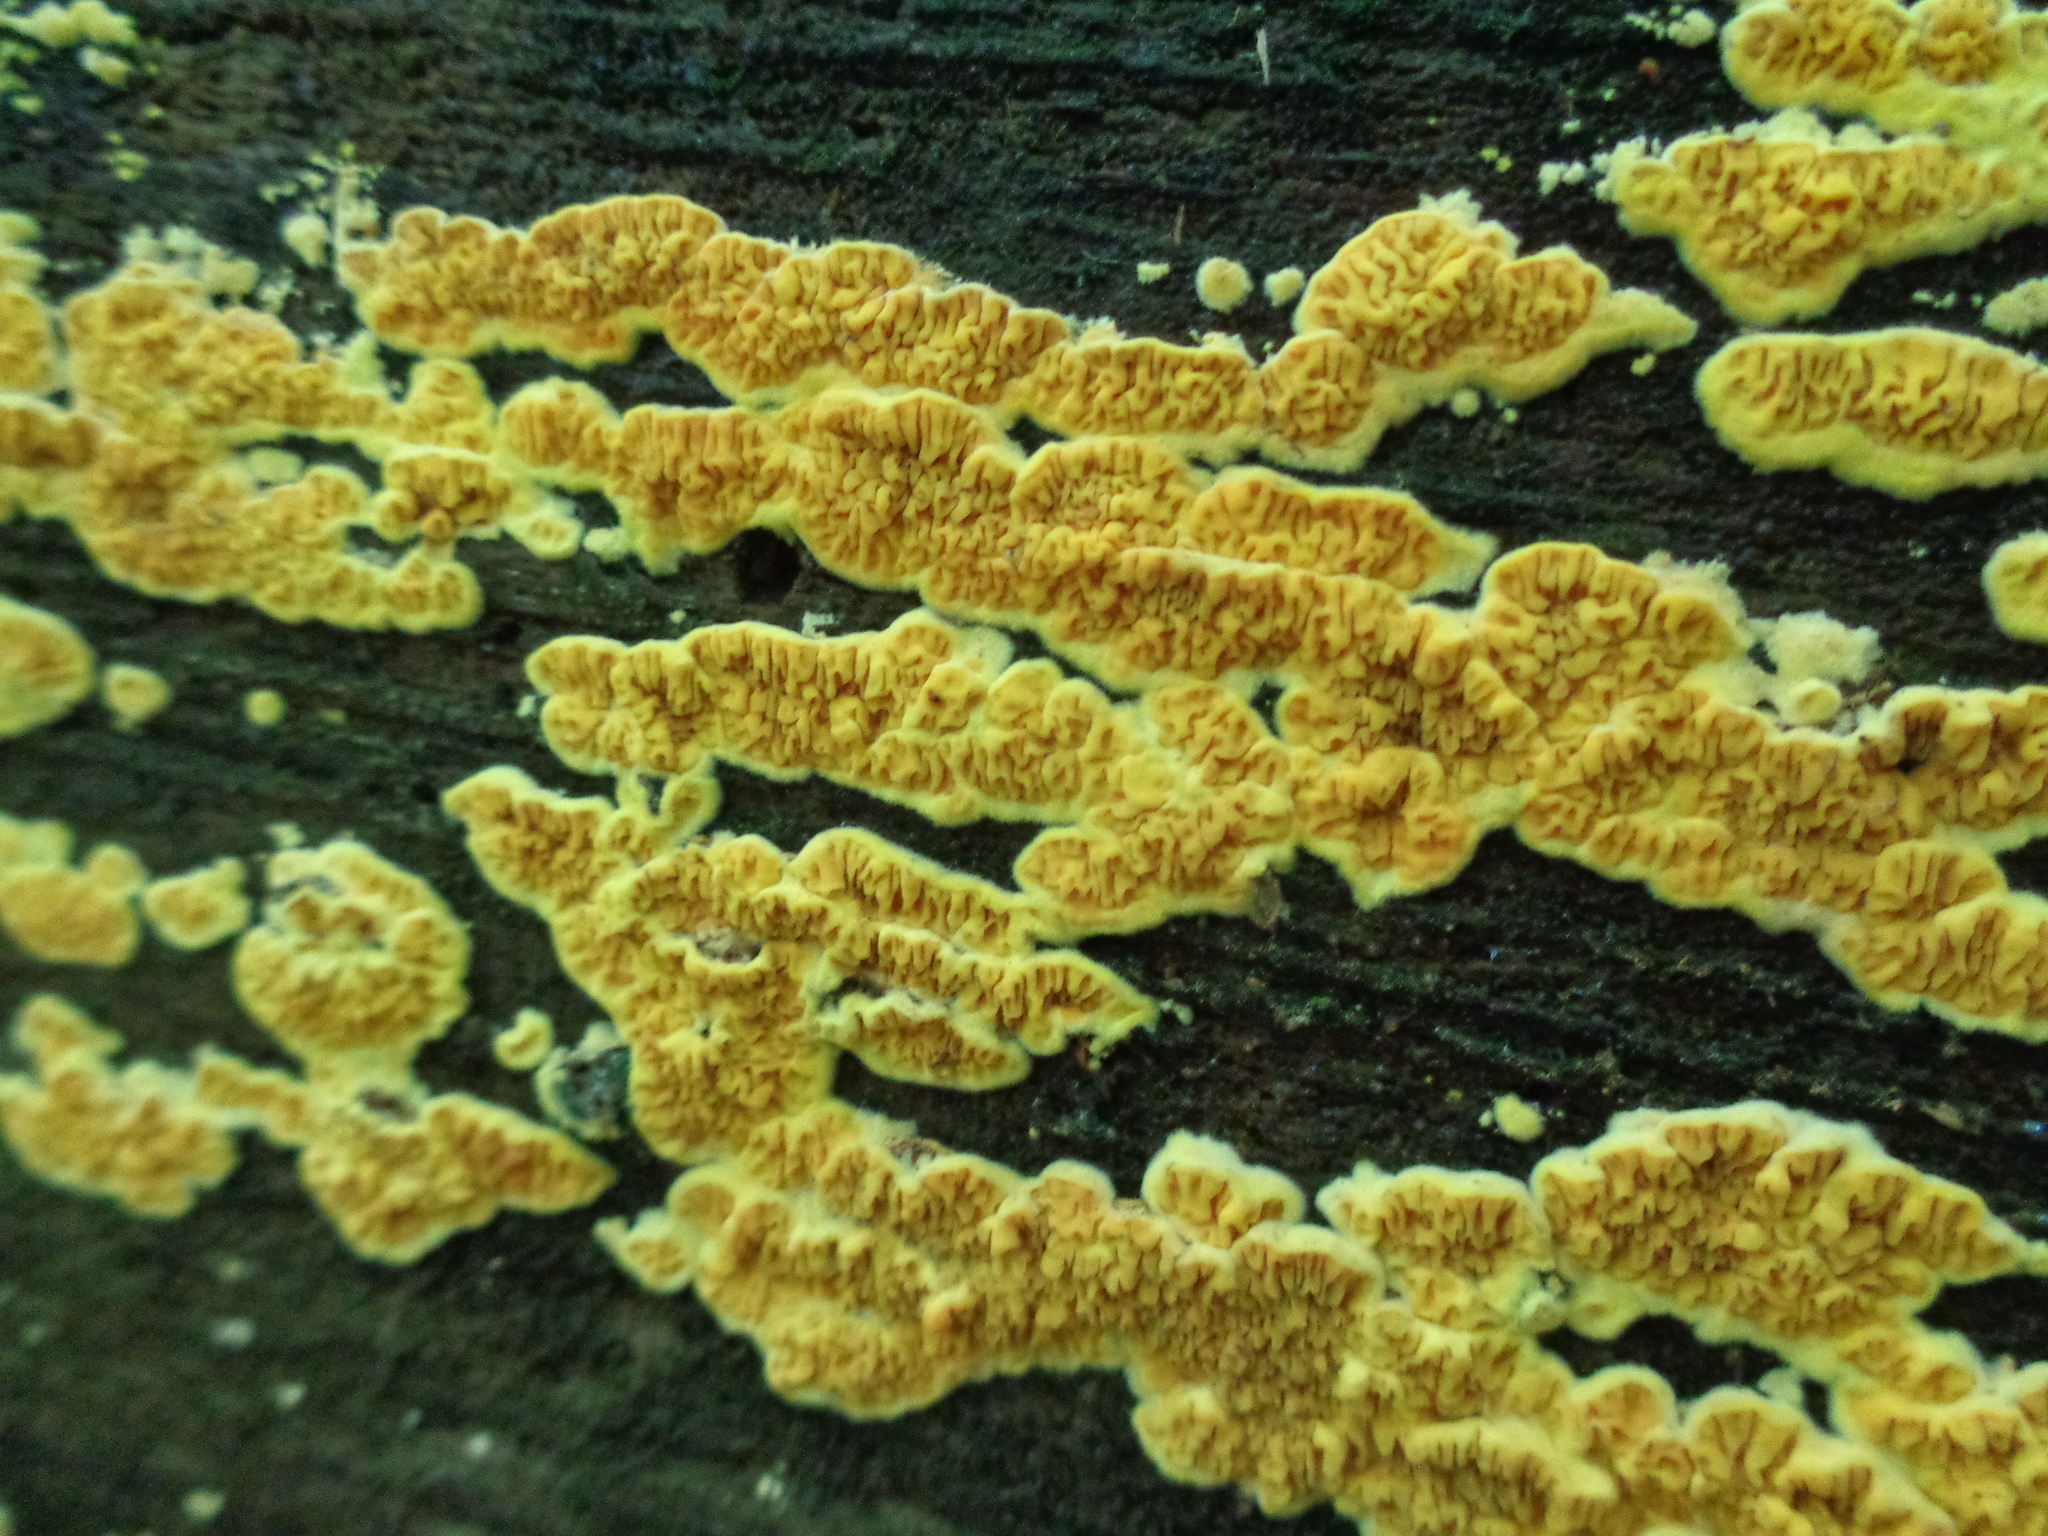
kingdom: Fungi
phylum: Basidiomycota
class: Agaricomycetes
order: Boletales
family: Tapinellaceae
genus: Pseudomerulius
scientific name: Pseudomerulius aureus
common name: Orange netcrust
